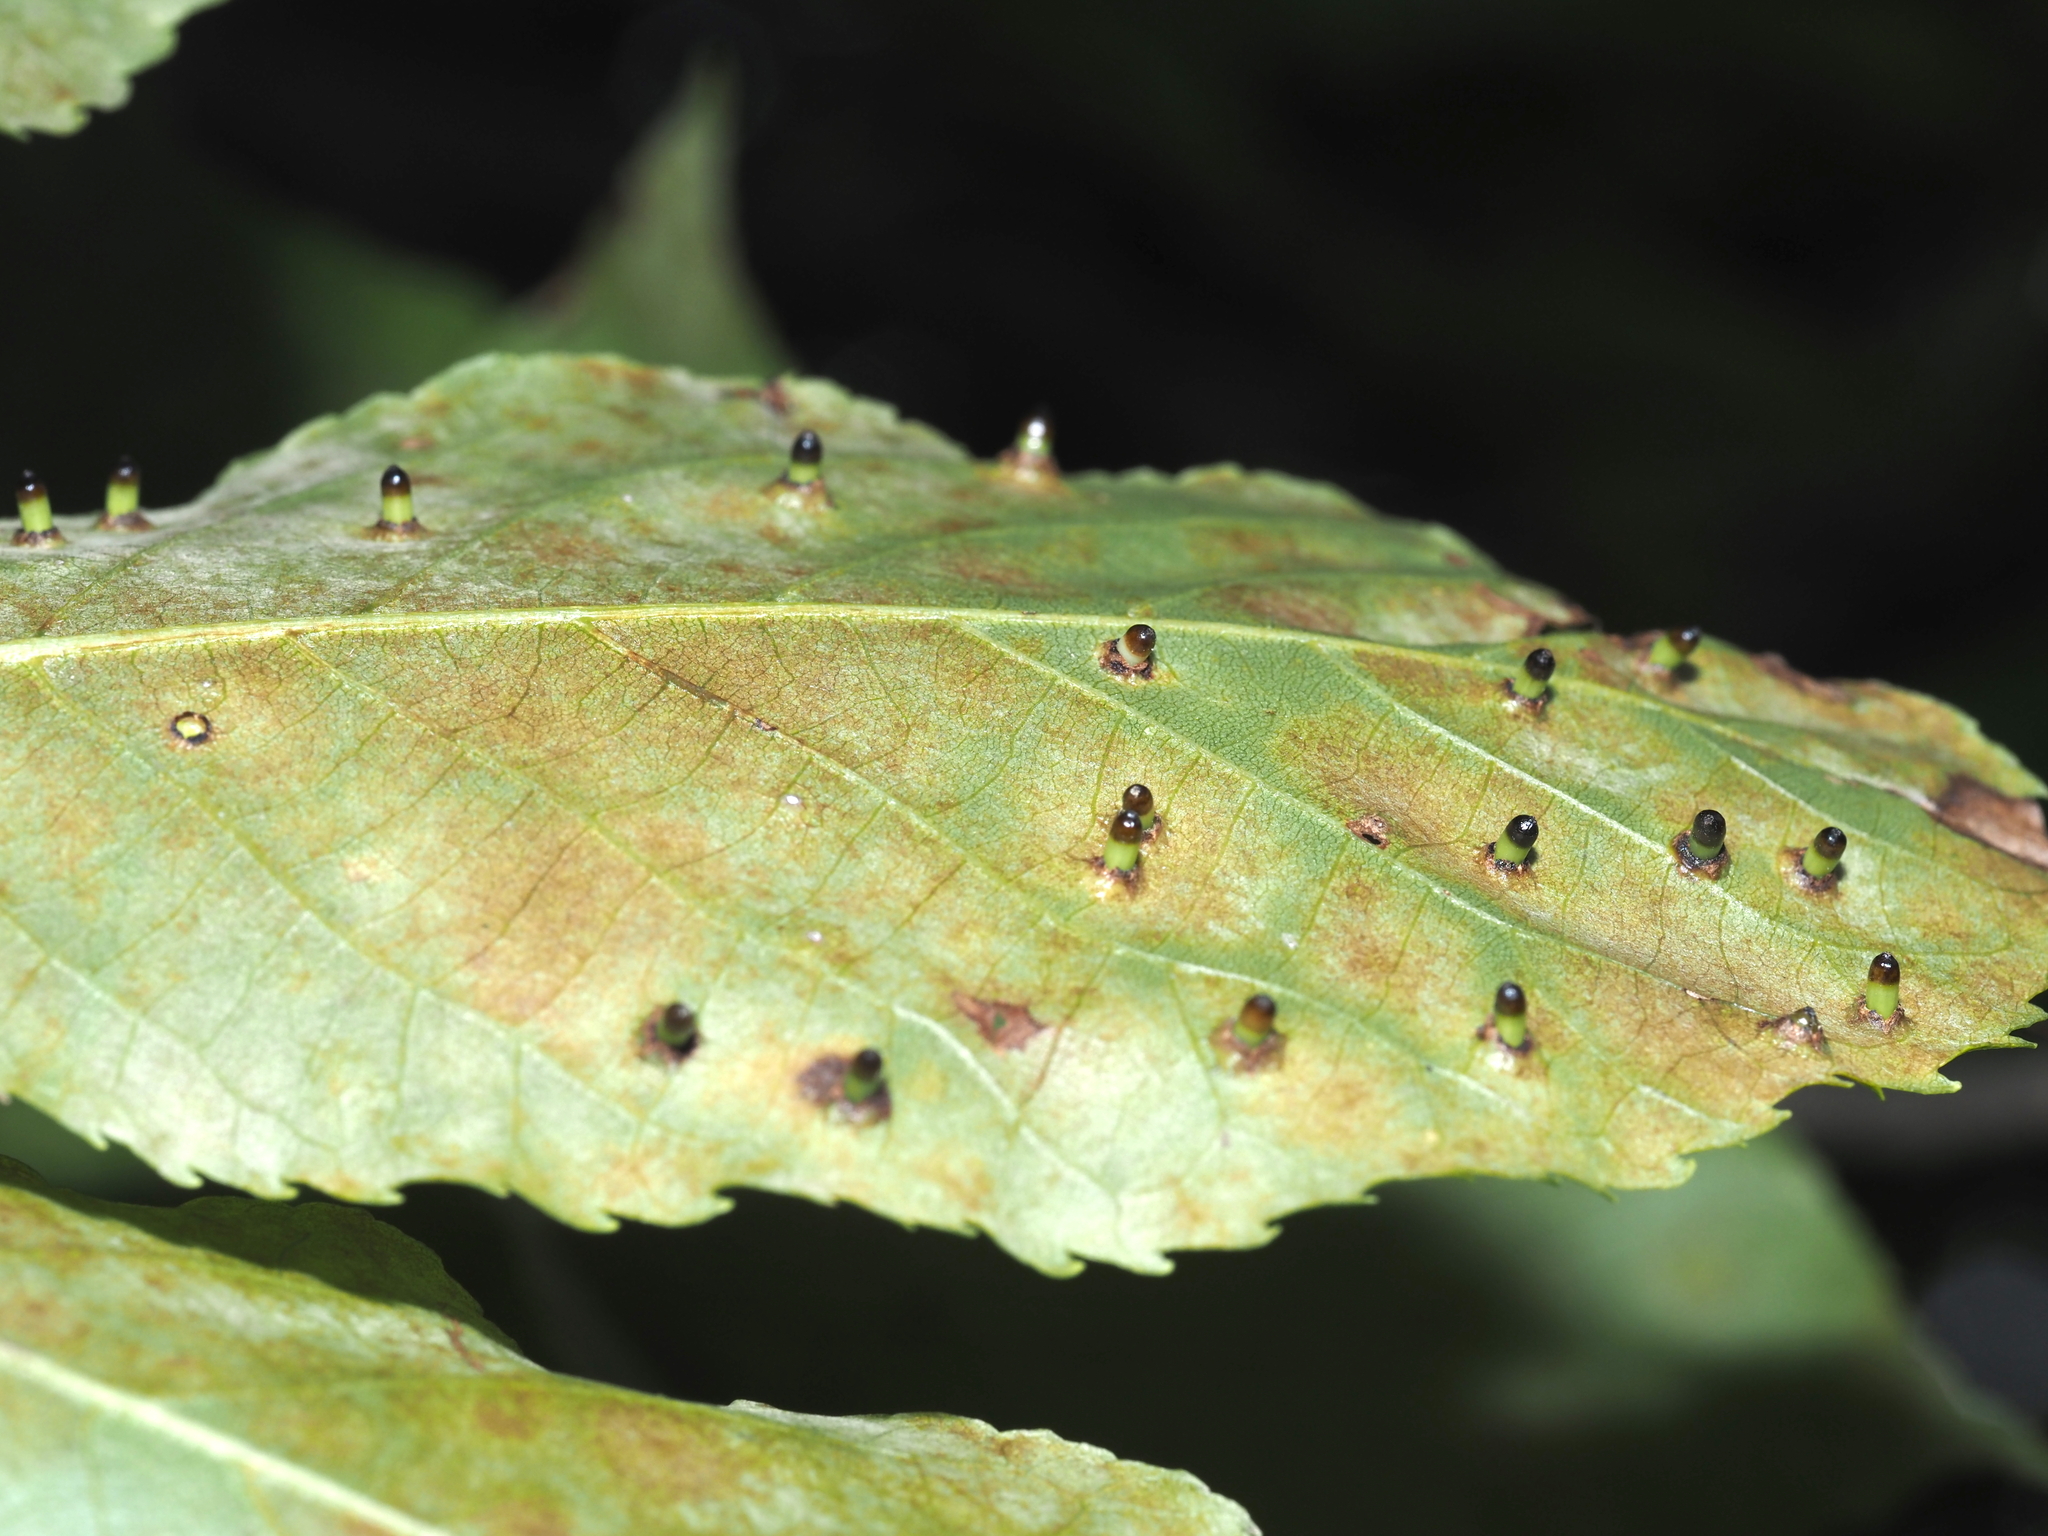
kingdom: Animalia
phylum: Arthropoda
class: Insecta
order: Diptera
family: Cecidomyiidae
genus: Caryomyia
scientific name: Caryomyia tubicola
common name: Hickory bullet gall midge
